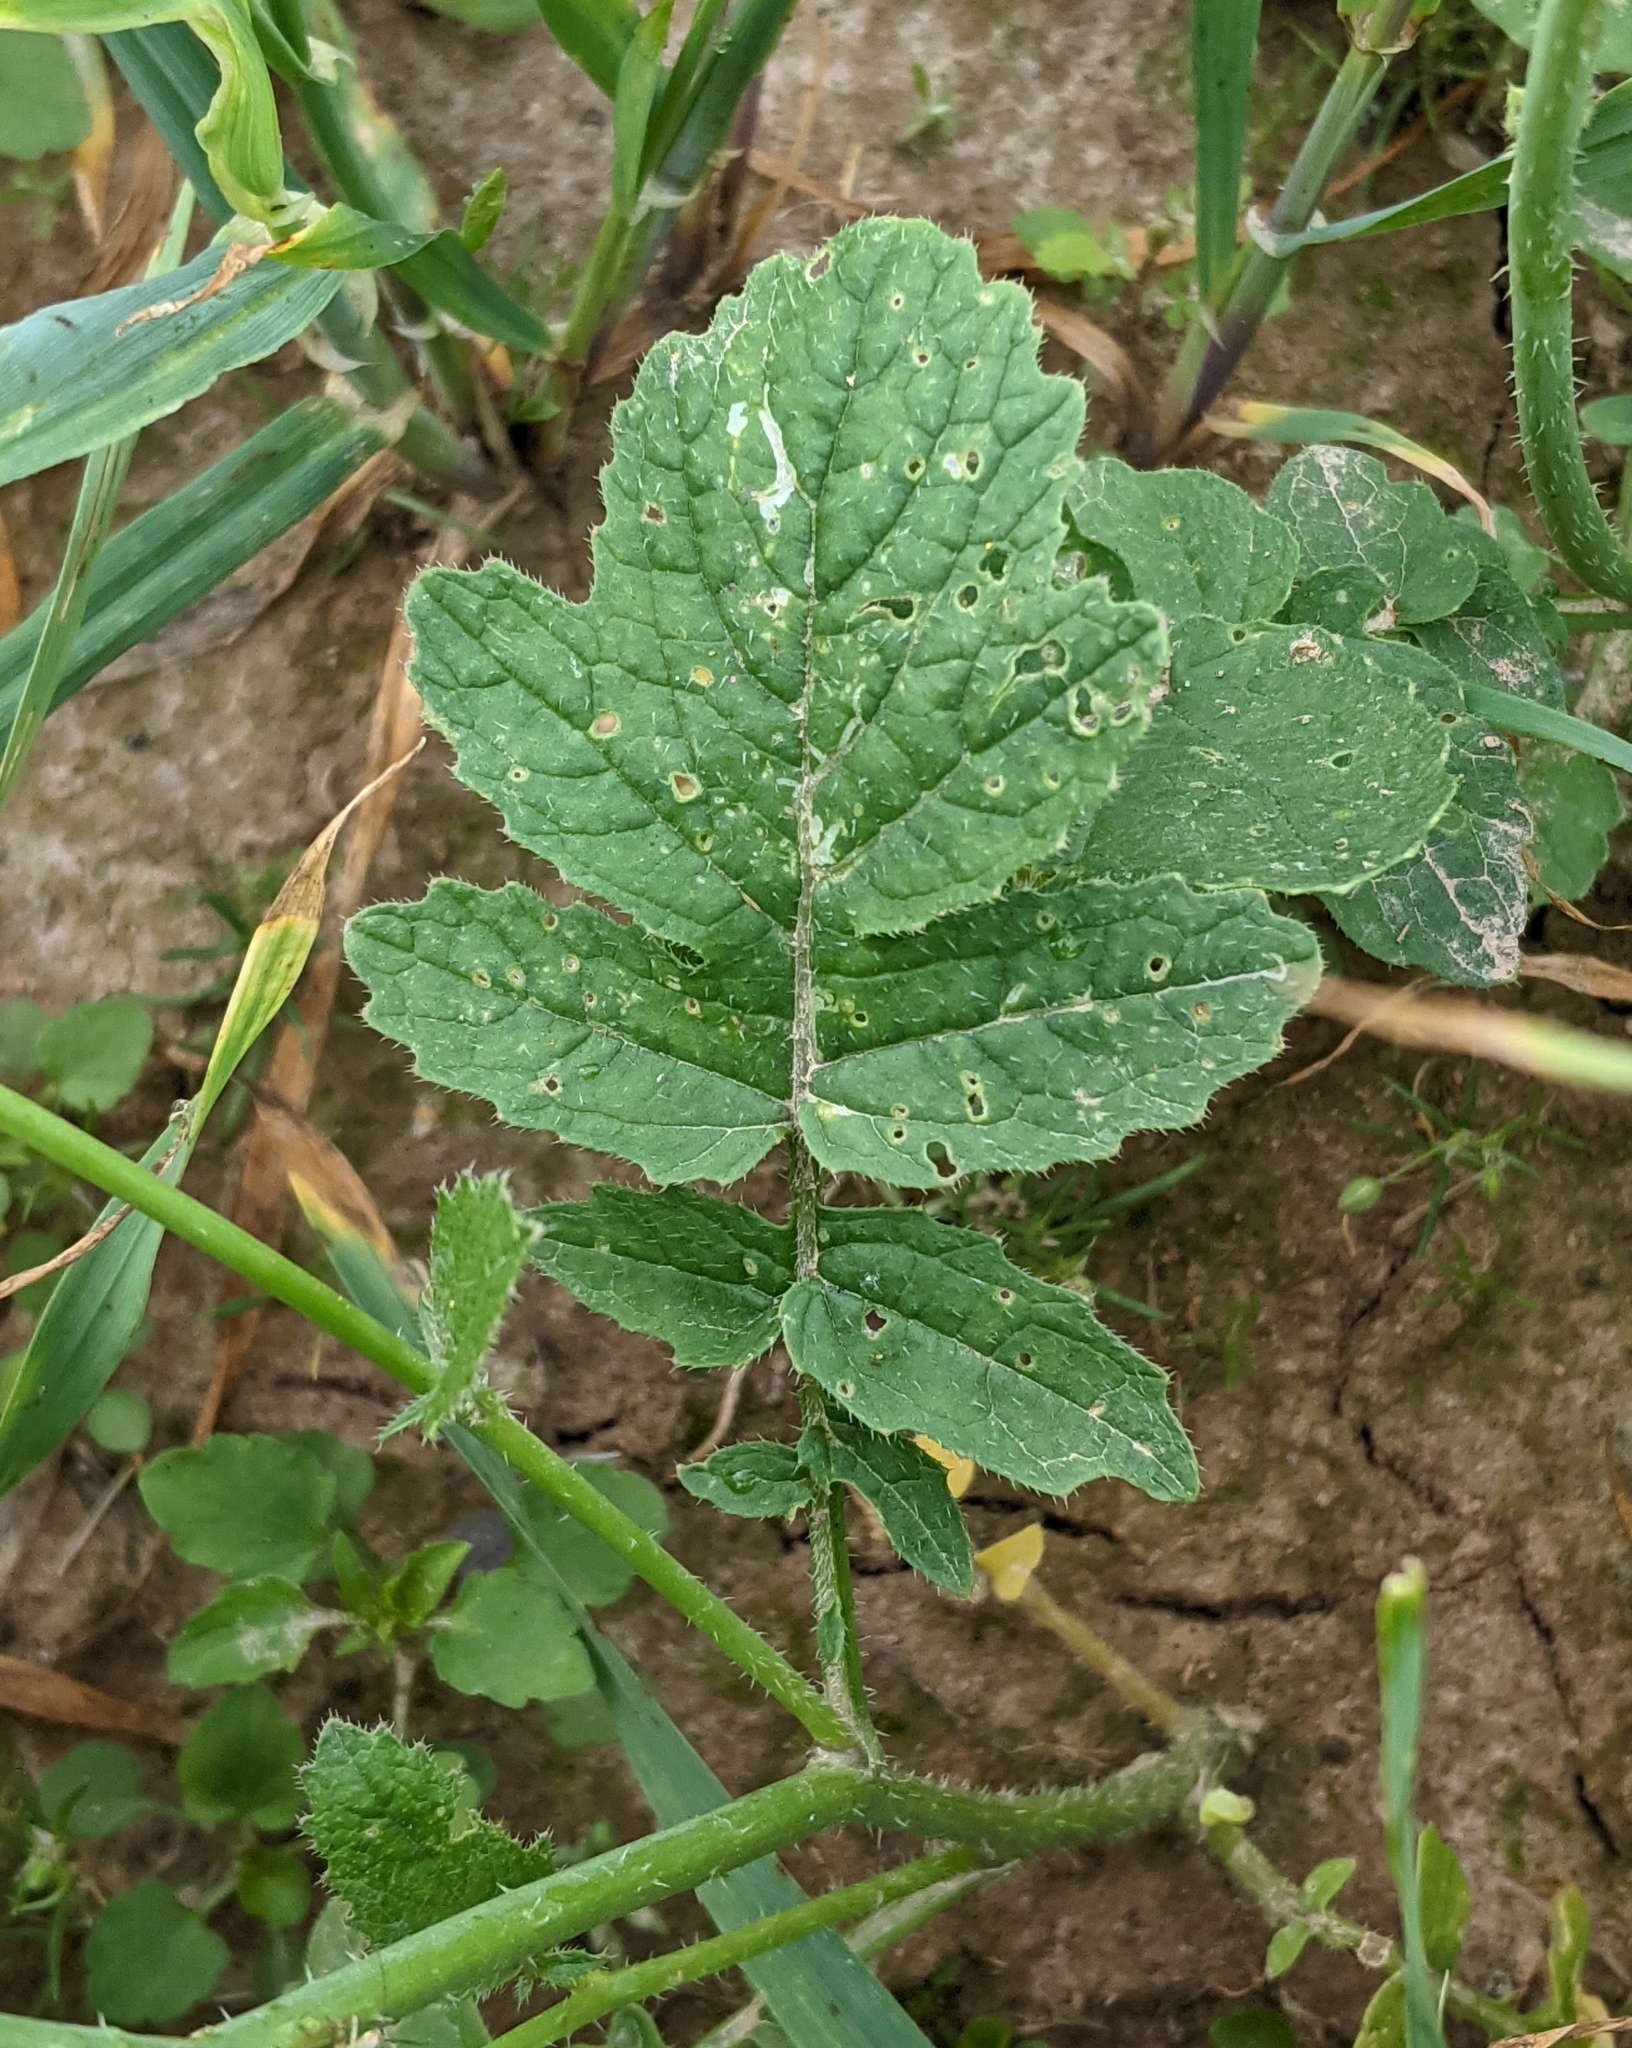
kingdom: Plantae
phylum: Tracheophyta
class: Magnoliopsida
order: Brassicales
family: Brassicaceae
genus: Raphanus
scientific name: Raphanus raphanistrum
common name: Wild radish
